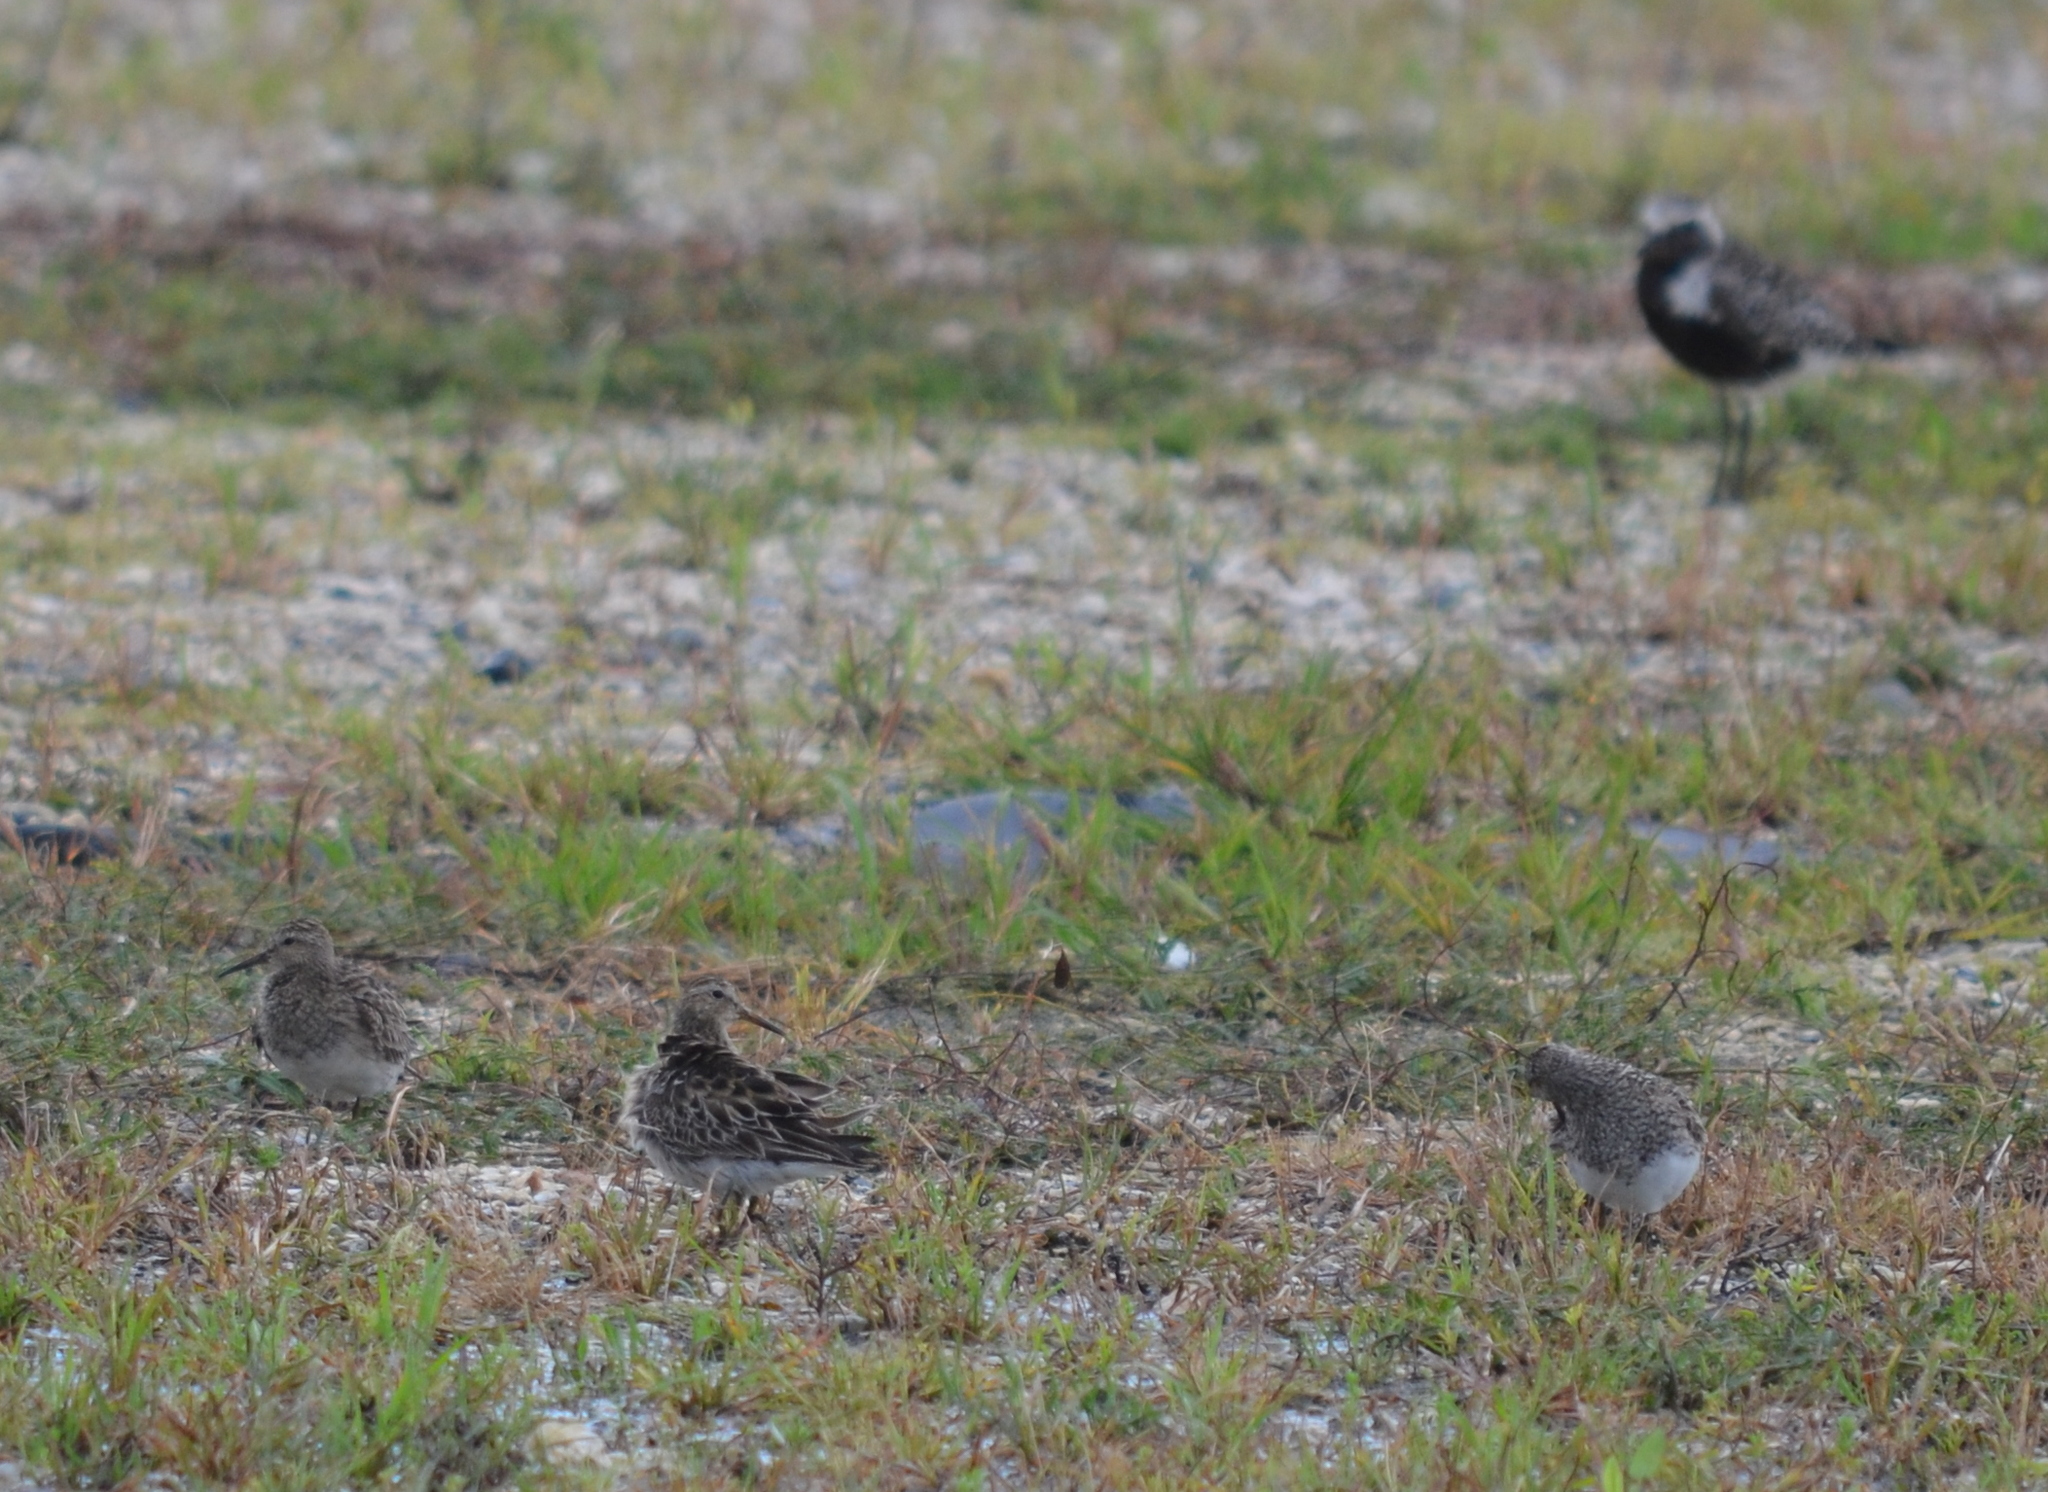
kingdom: Animalia
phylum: Chordata
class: Aves
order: Charadriiformes
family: Scolopacidae
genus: Calidris
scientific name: Calidris melanotos
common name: Pectoral sandpiper
